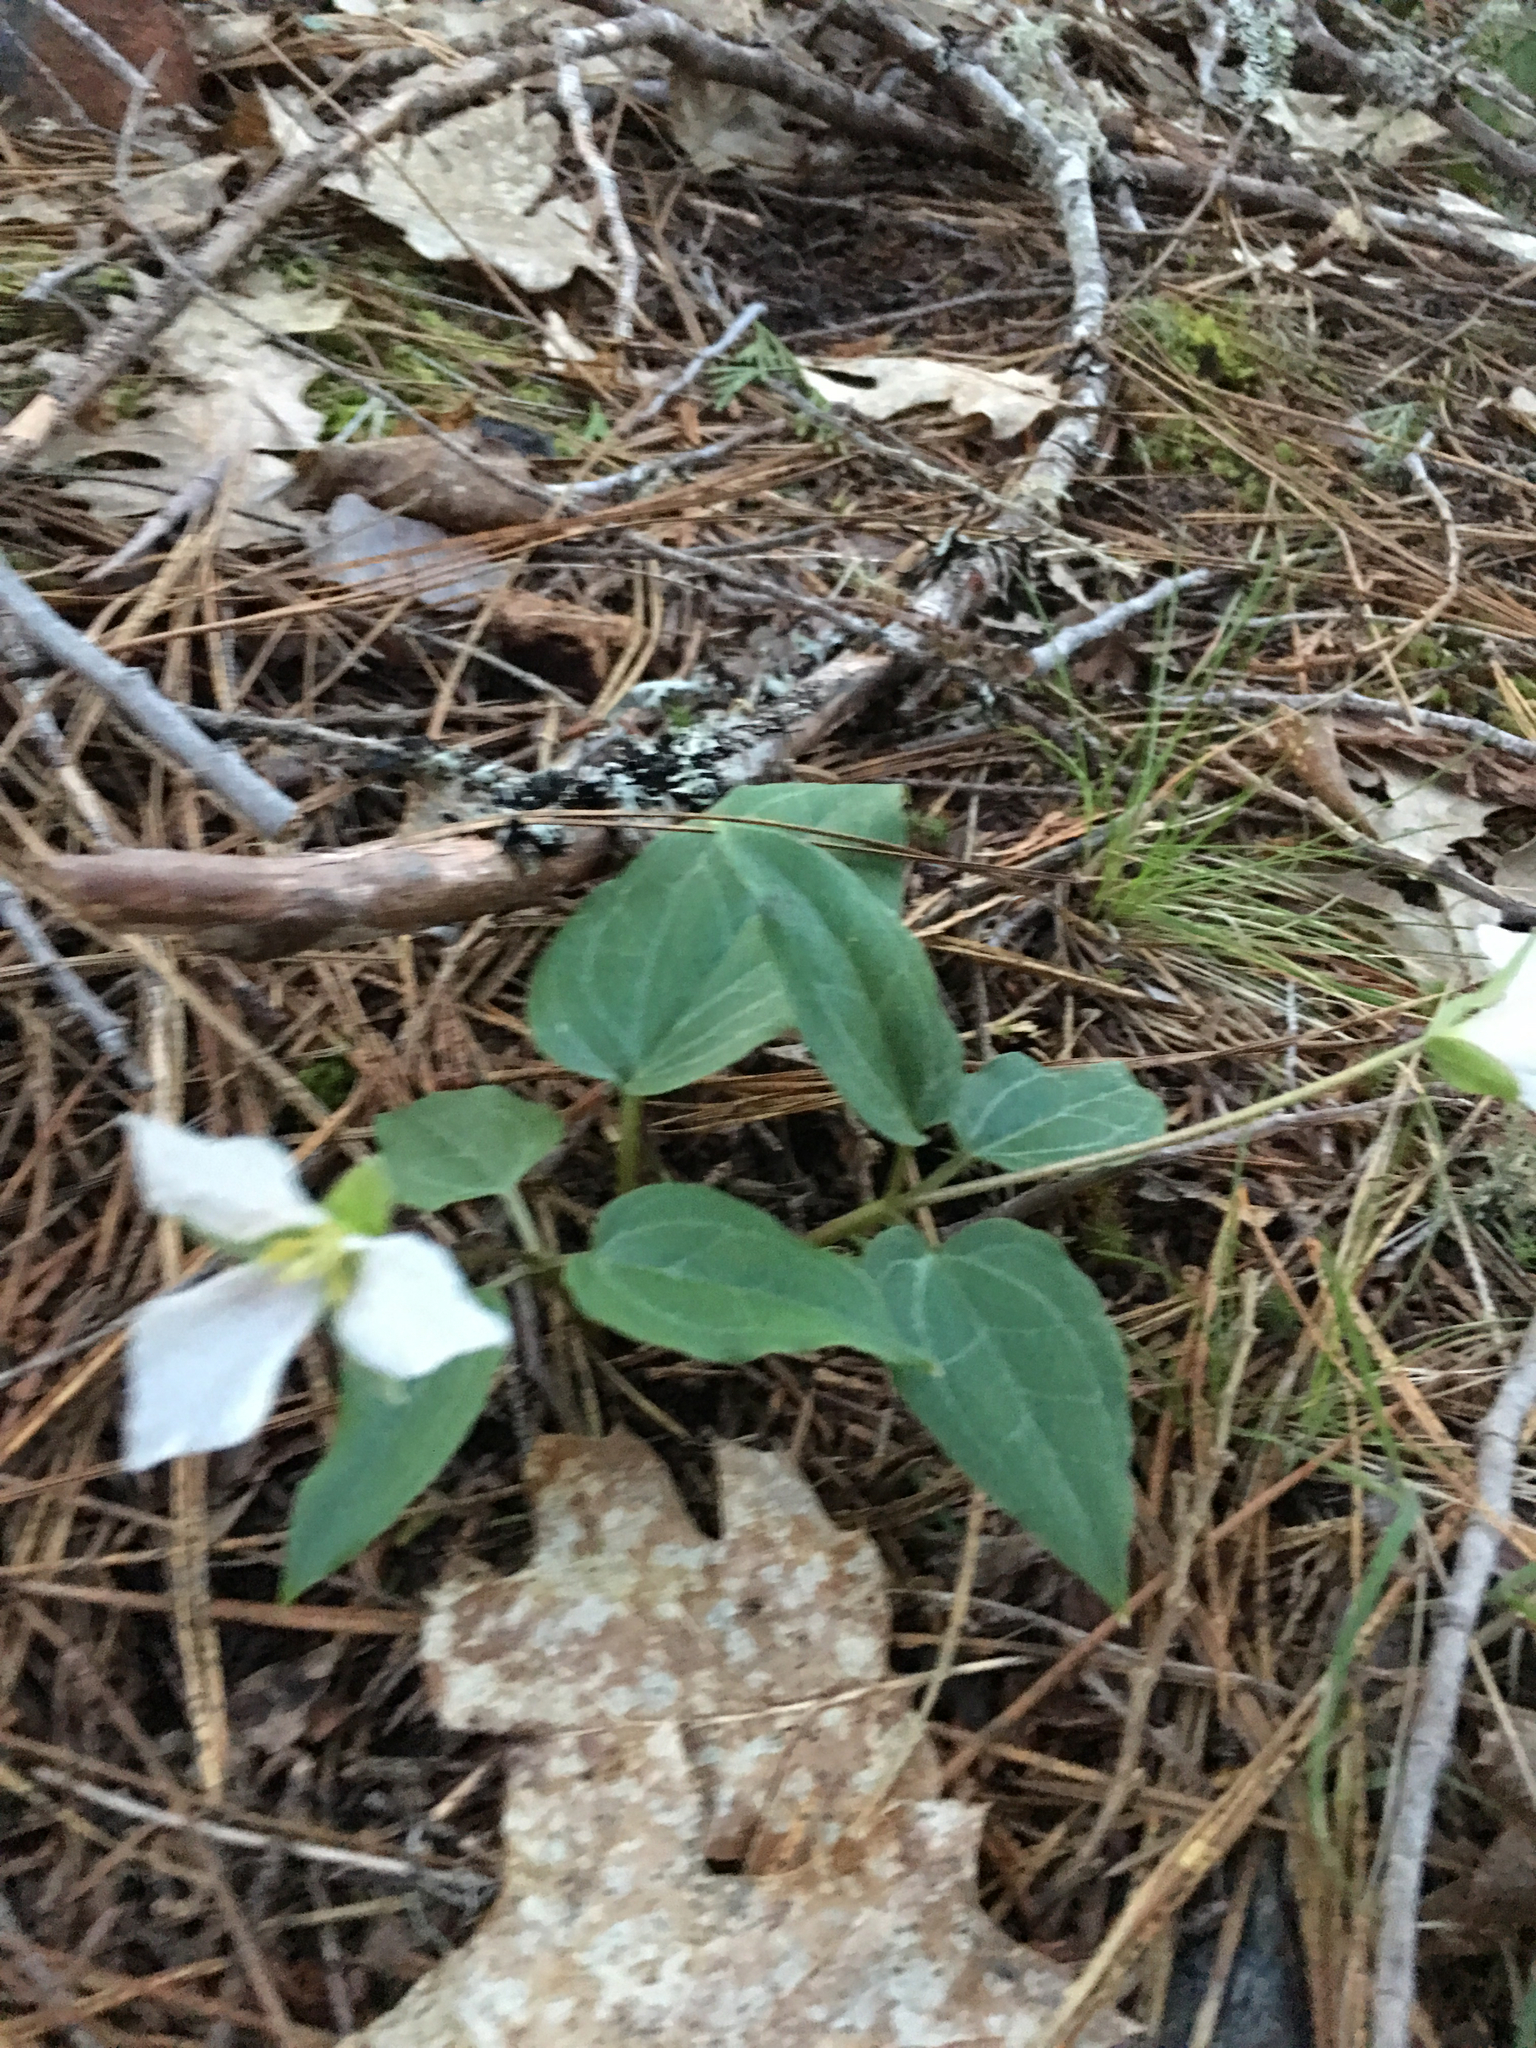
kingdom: Plantae
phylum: Tracheophyta
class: Liliopsida
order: Liliales
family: Melanthiaceae
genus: Pseudotrillium
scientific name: Pseudotrillium rivale
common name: Brook wakerobin
